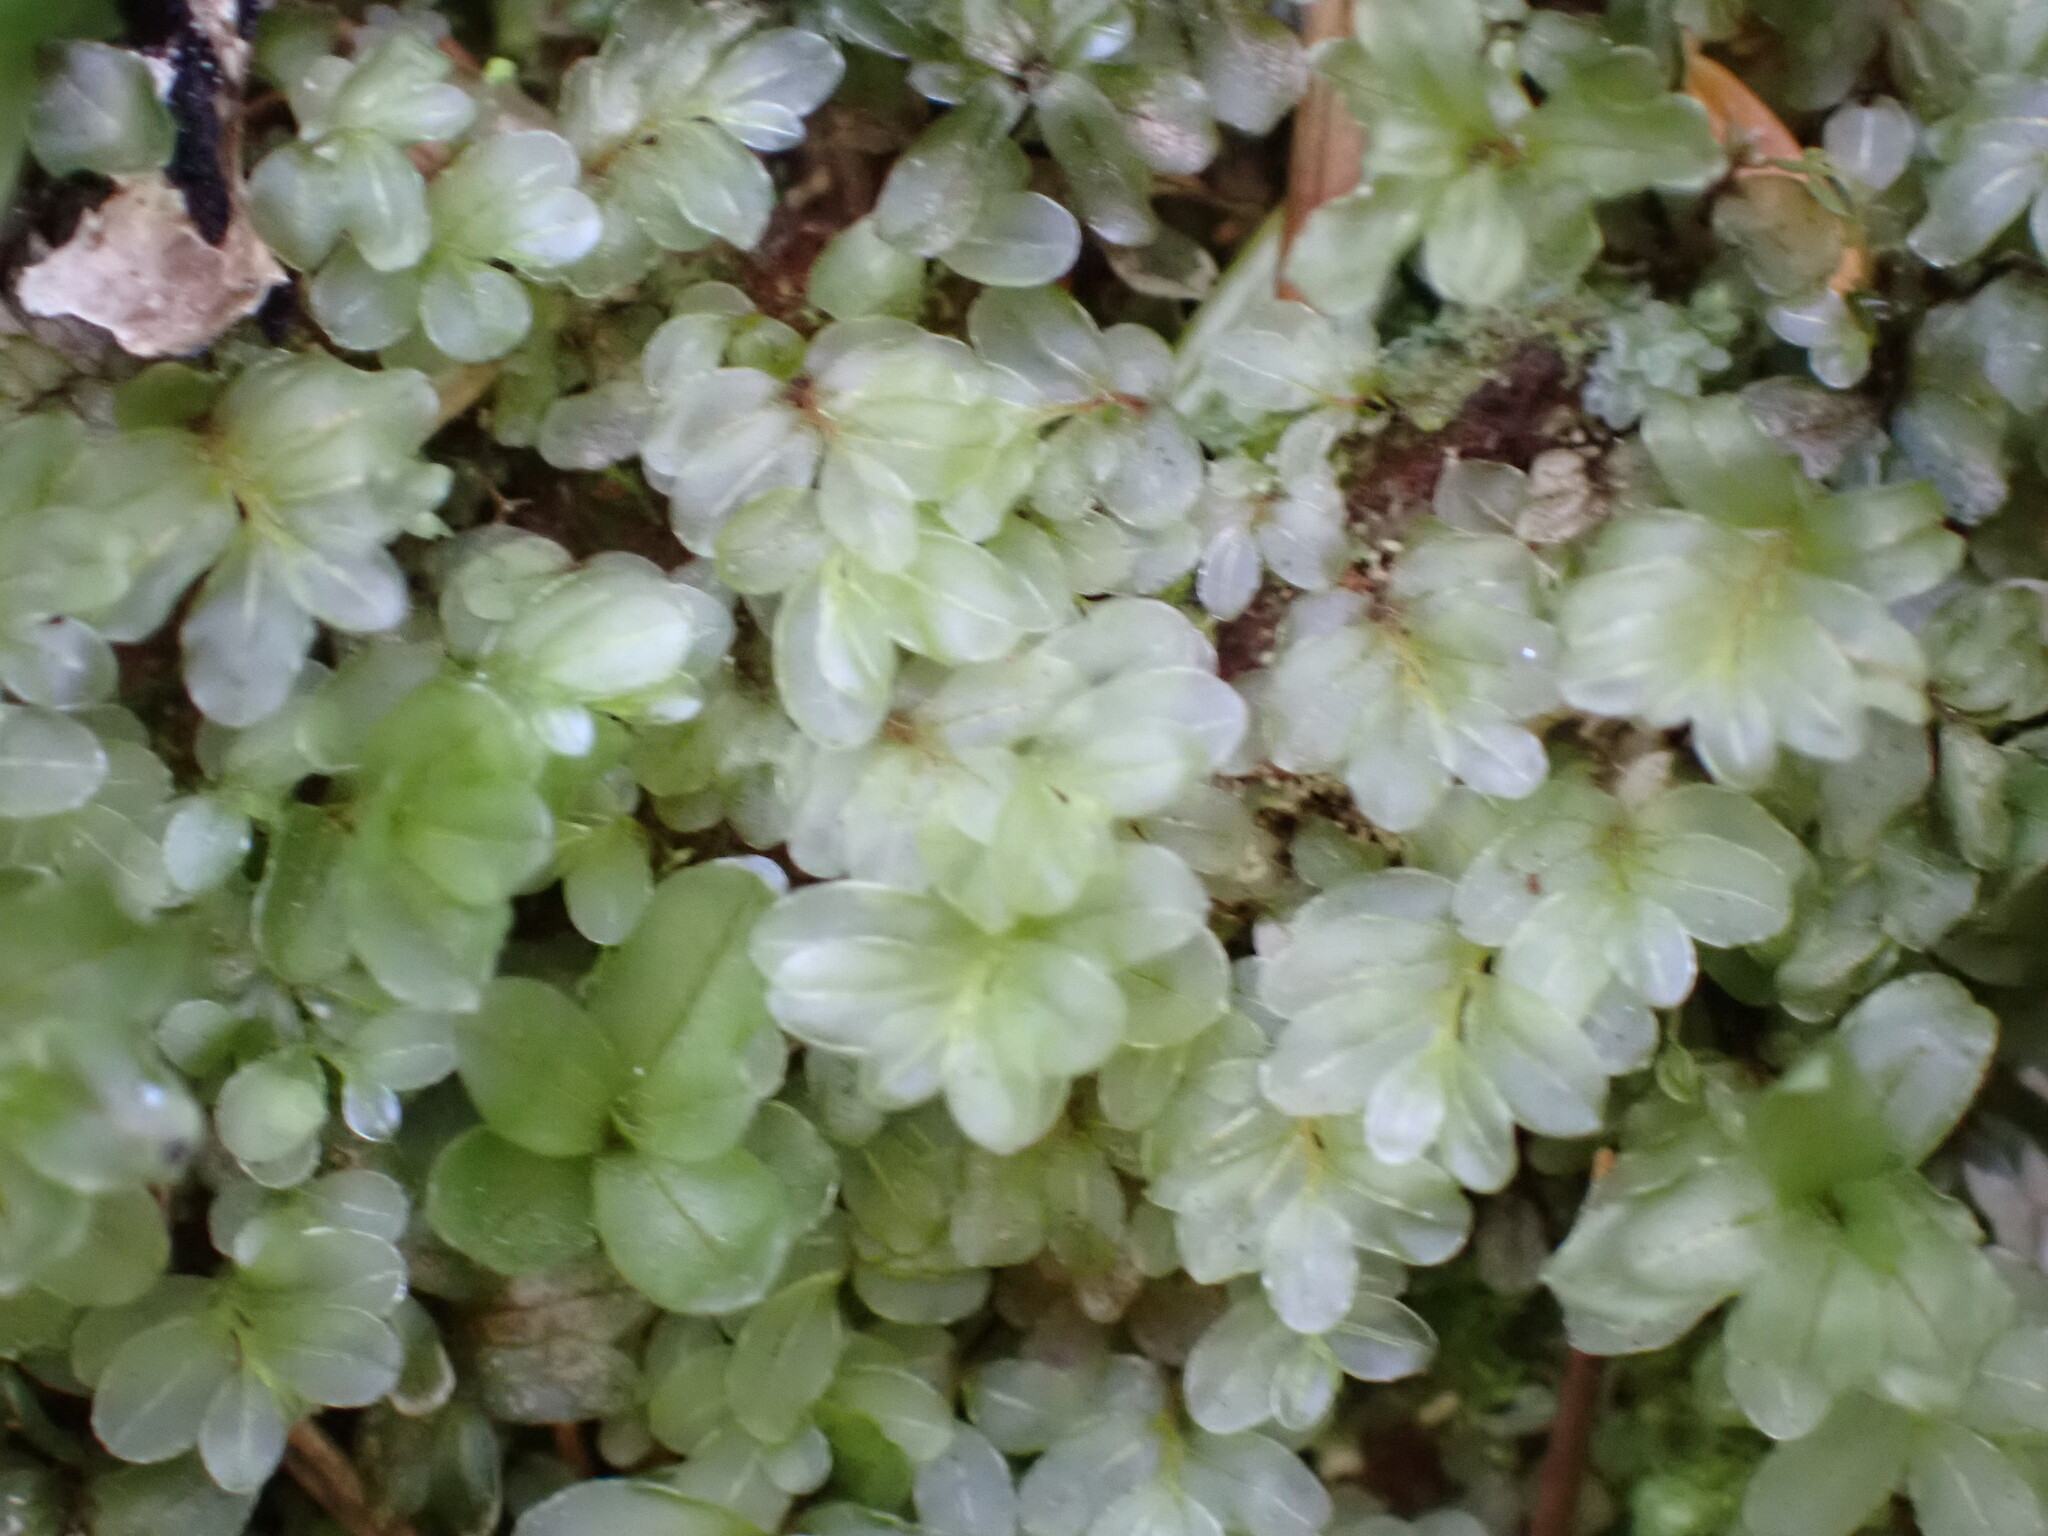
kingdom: Plantae
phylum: Bryophyta
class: Bryopsida
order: Bryales
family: Mniaceae
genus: Rhizomnium
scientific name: Rhizomnium glabrescens
